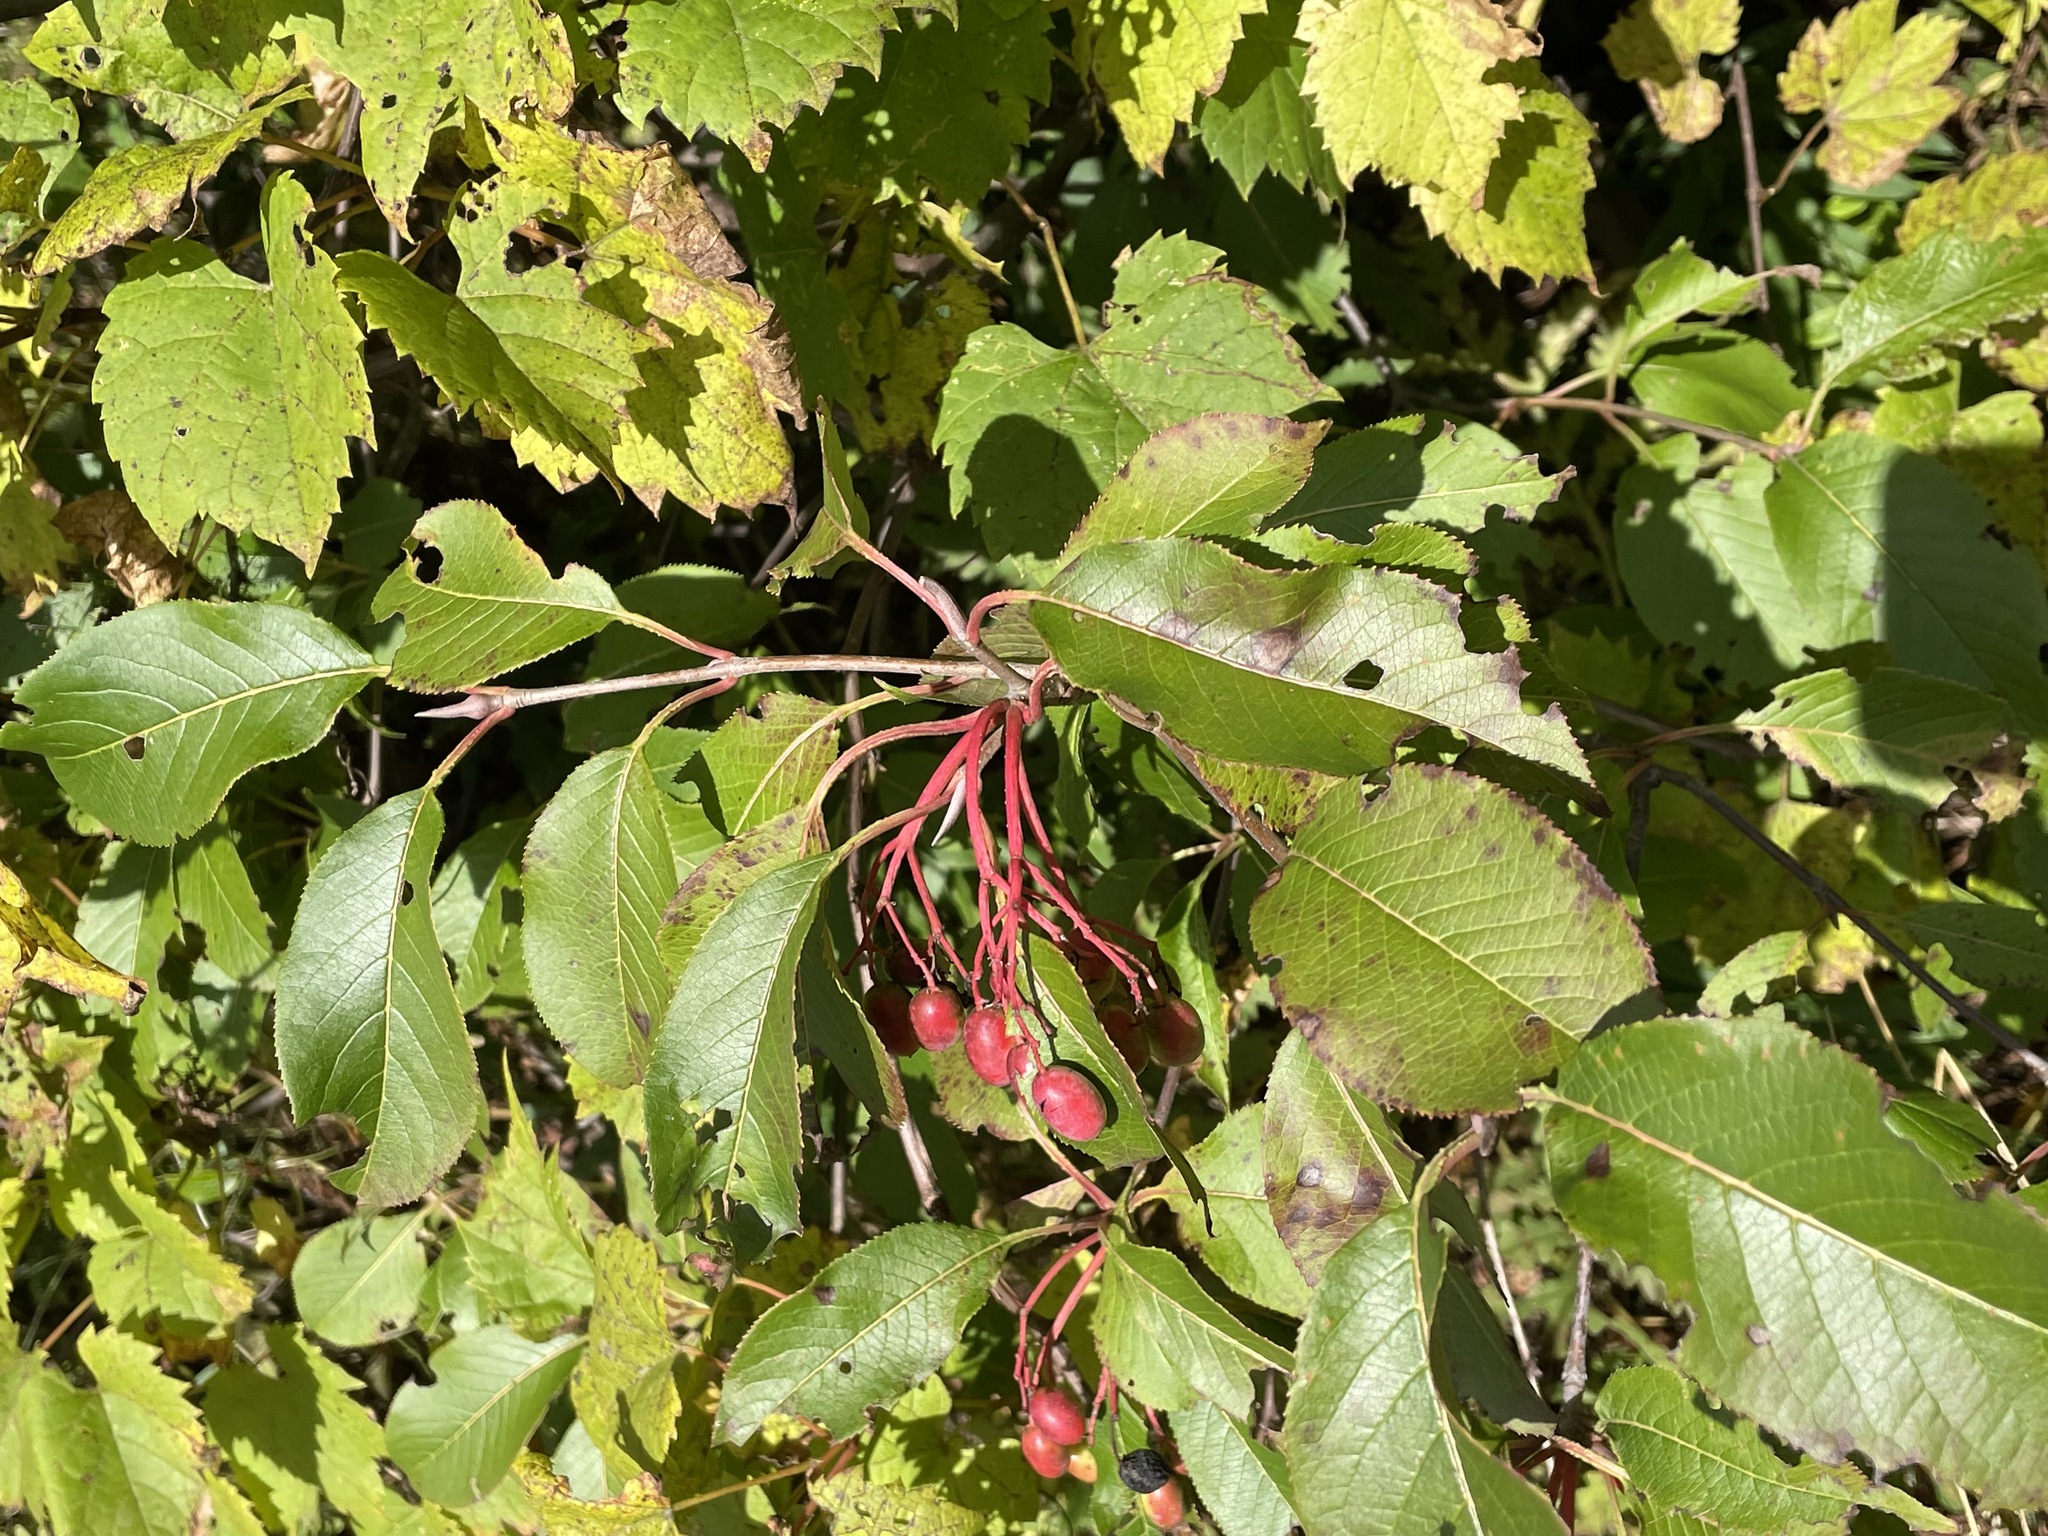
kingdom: Plantae
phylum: Tracheophyta
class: Magnoliopsida
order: Dipsacales
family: Viburnaceae
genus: Viburnum
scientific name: Viburnum lentago
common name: Black haw
